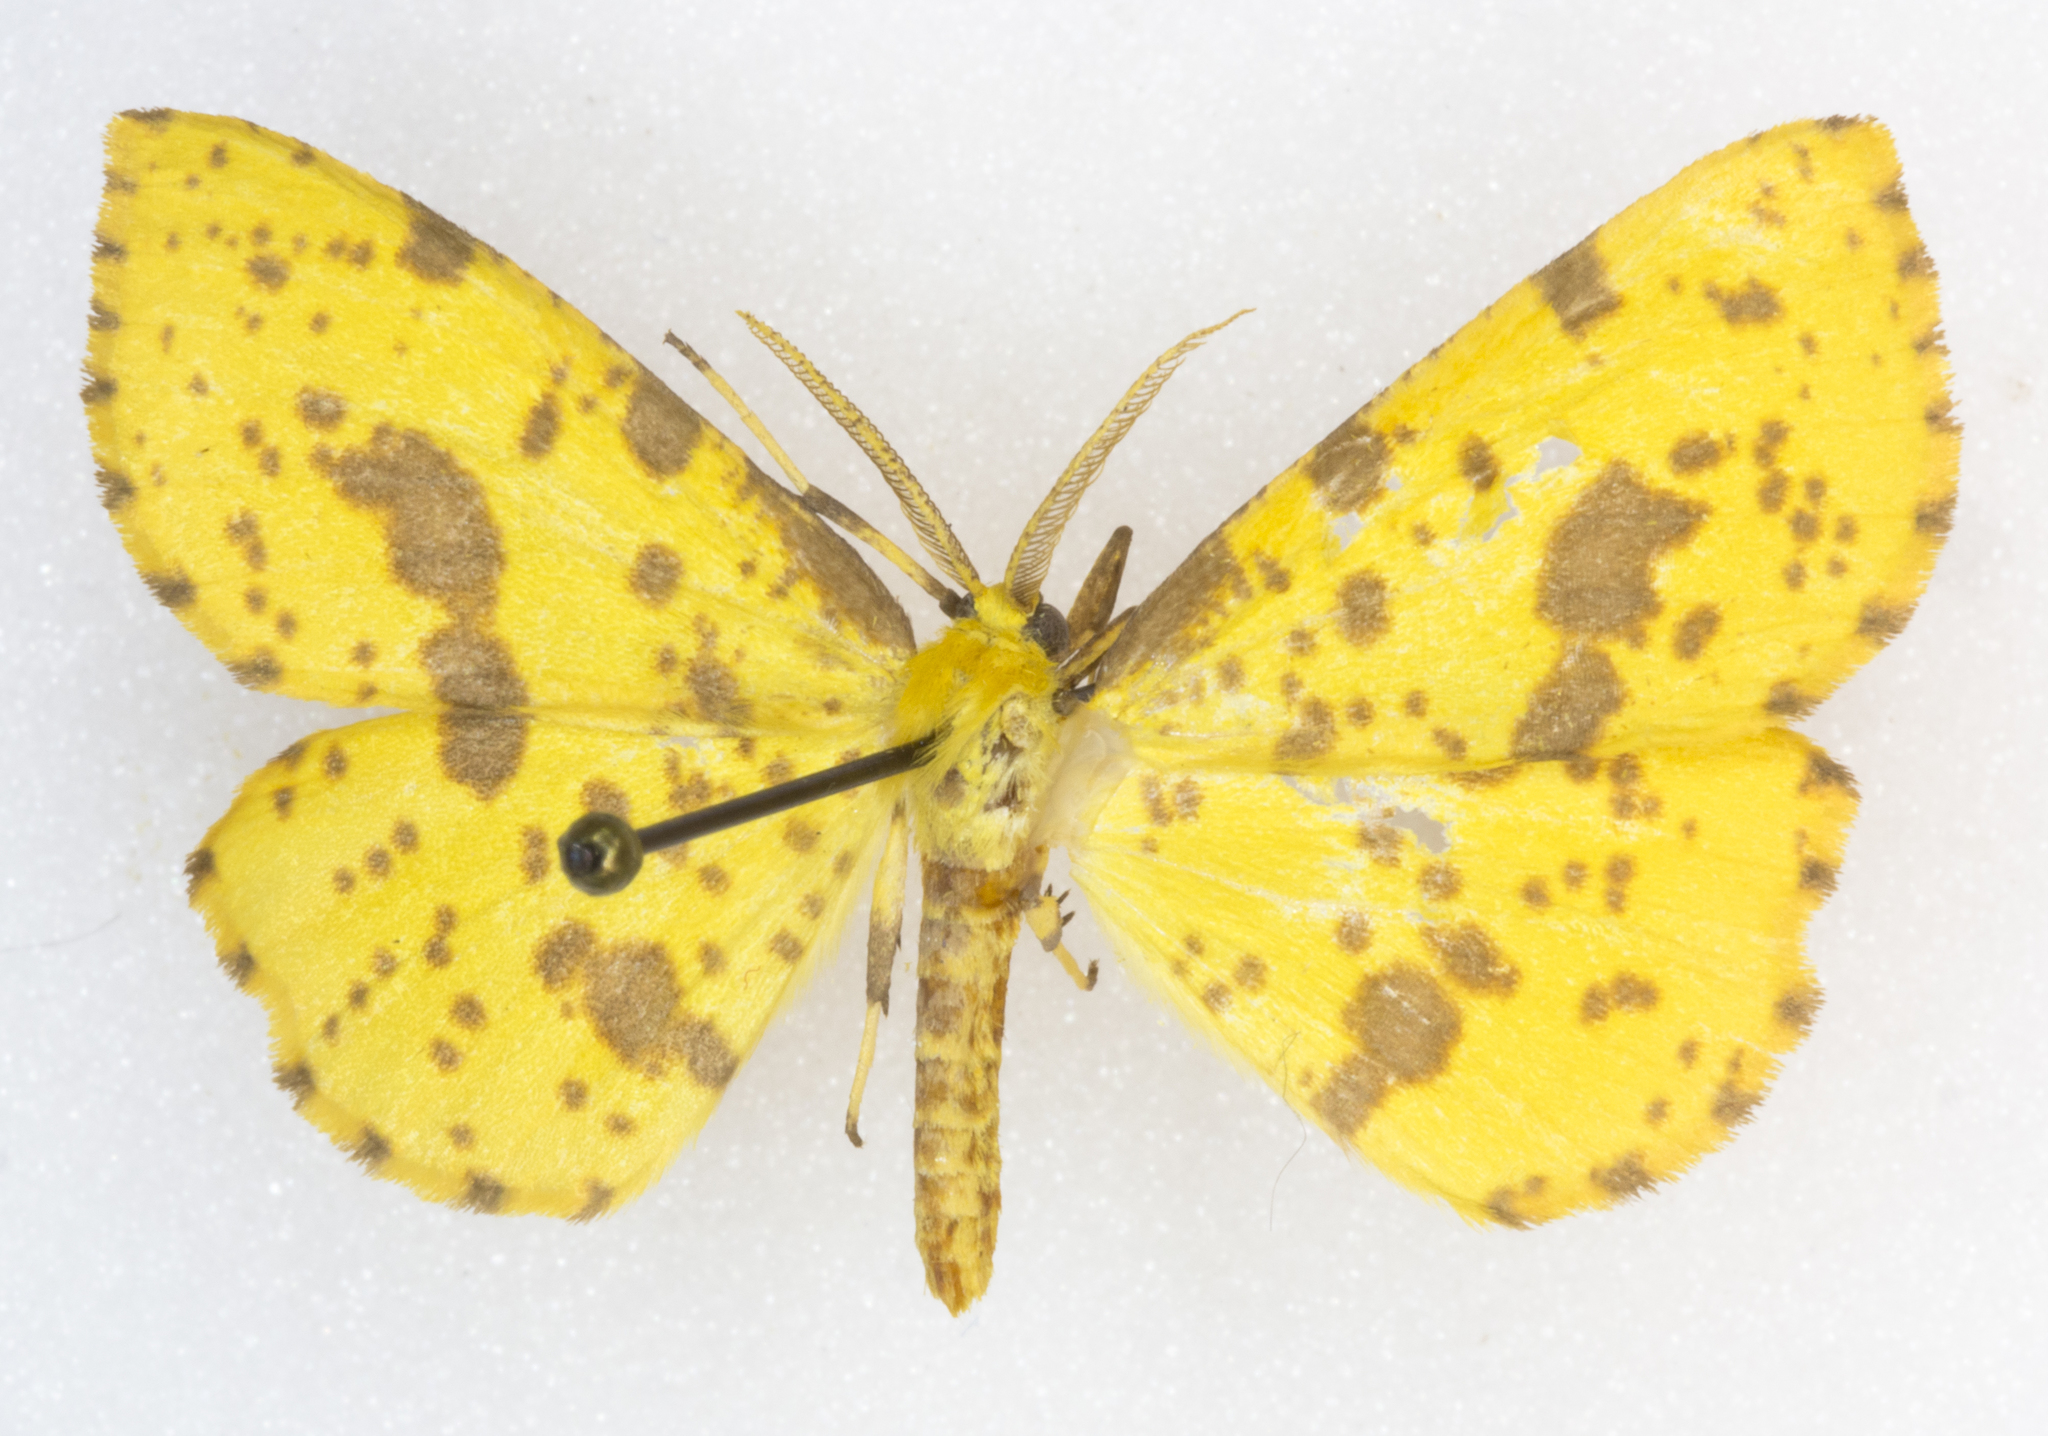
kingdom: Animalia
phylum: Arthropoda
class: Insecta
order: Lepidoptera
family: Geometridae
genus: Xanthotype
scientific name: Xanthotype
